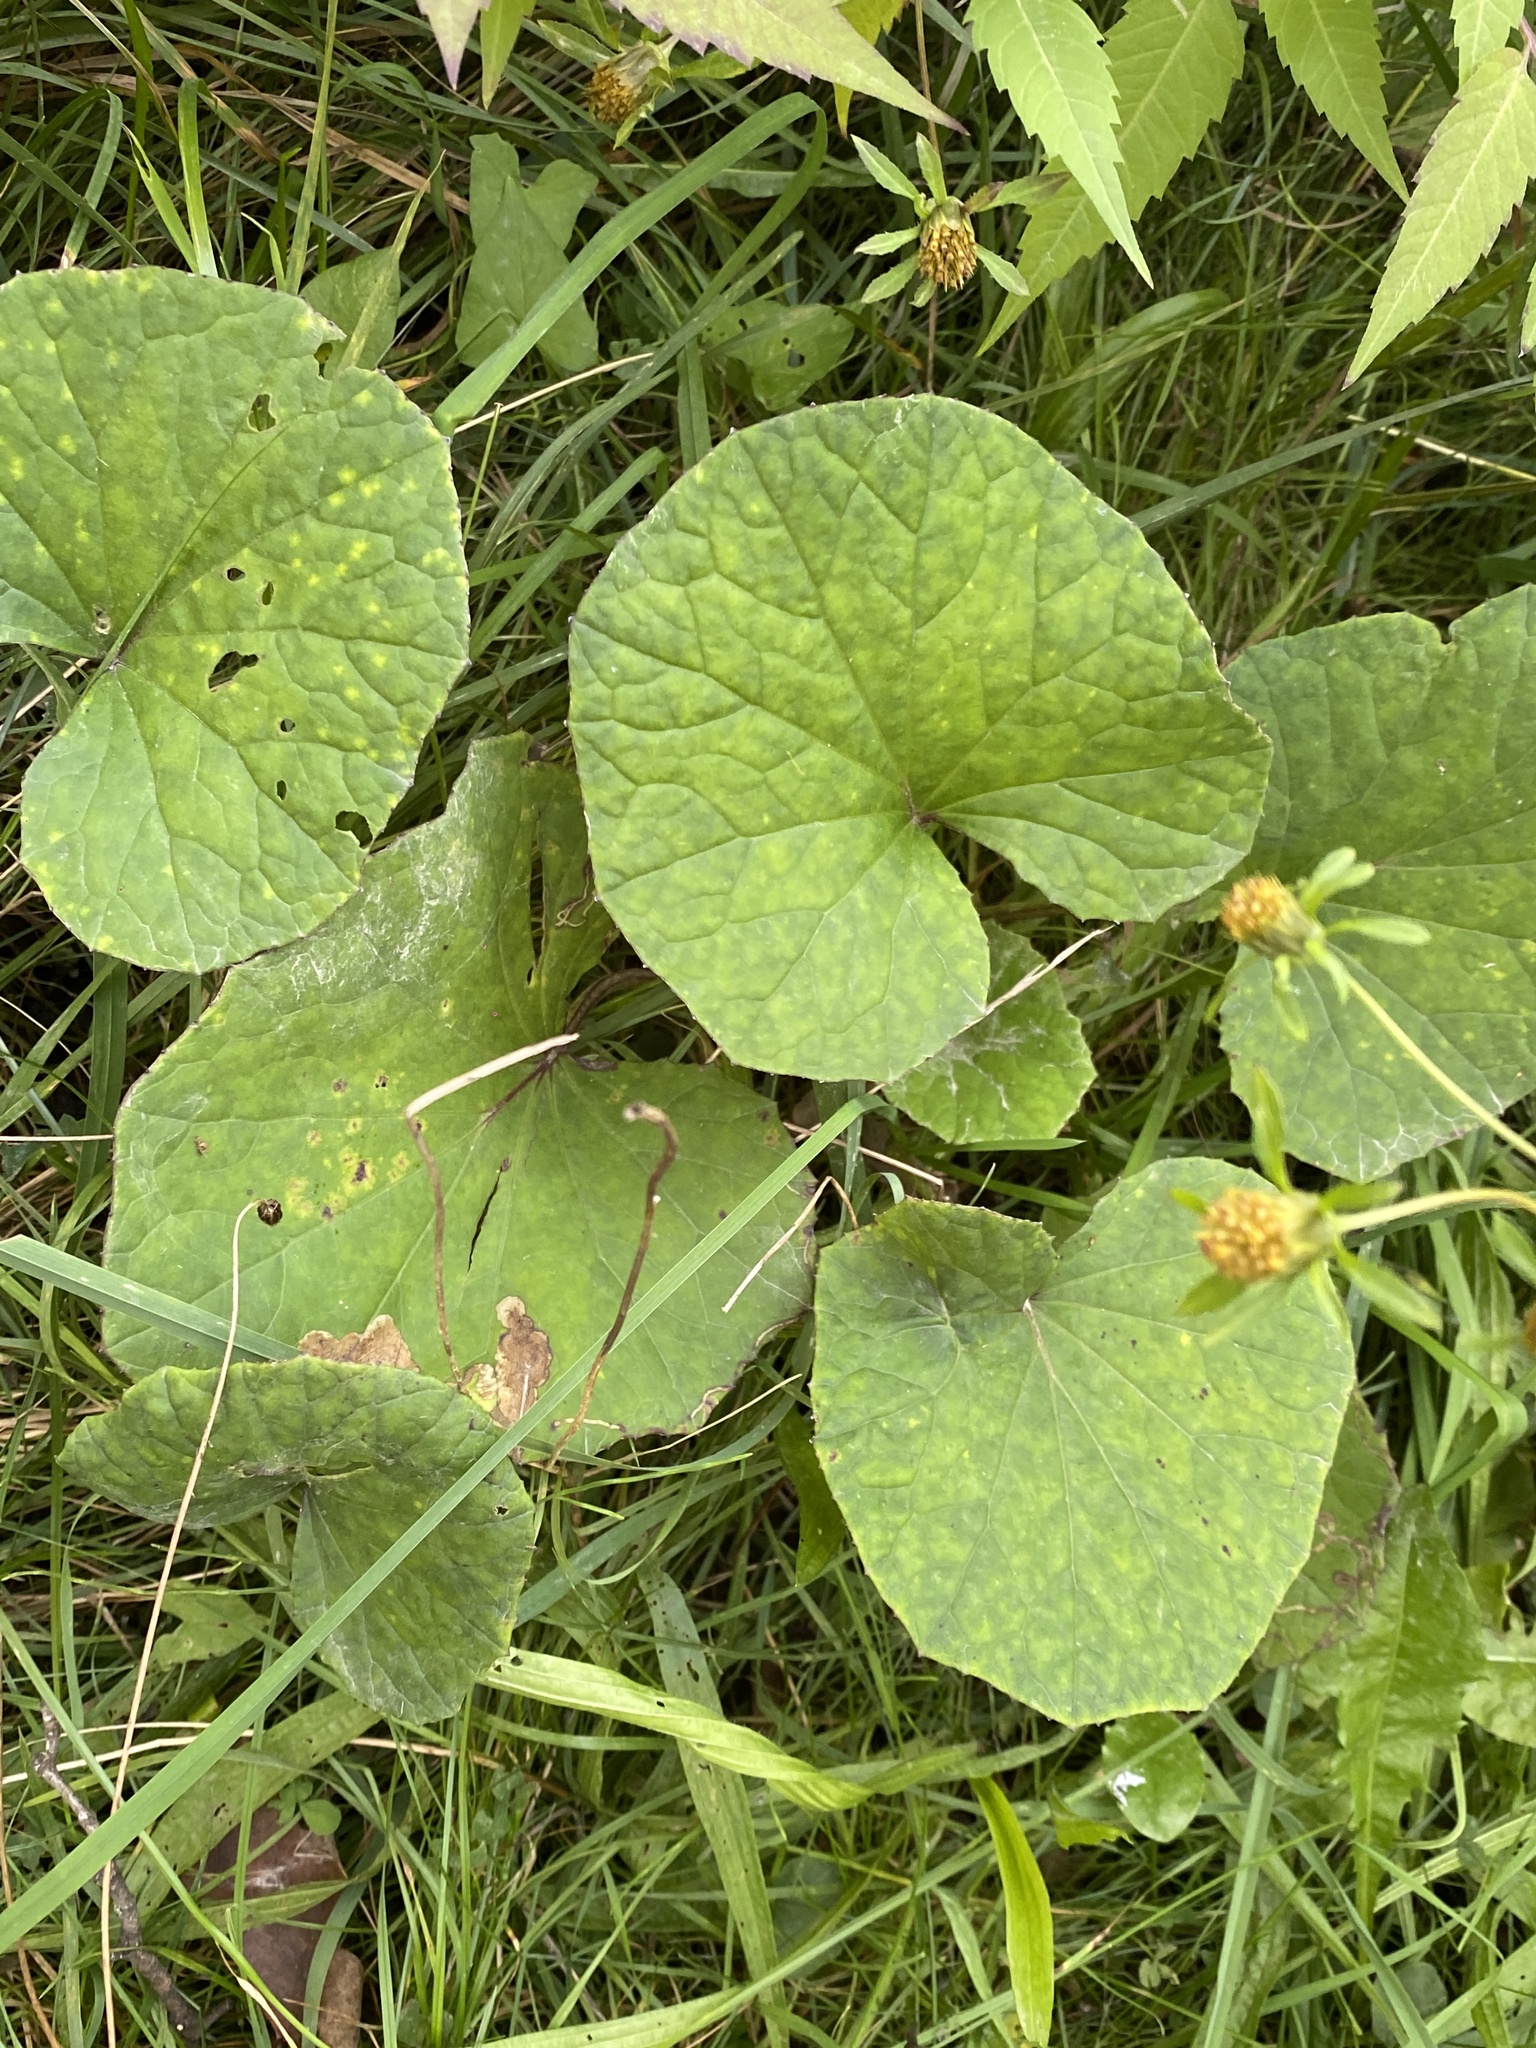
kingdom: Plantae
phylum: Tracheophyta
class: Magnoliopsida
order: Asterales
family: Asteraceae
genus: Tussilago
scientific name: Tussilago farfara
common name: Coltsfoot
